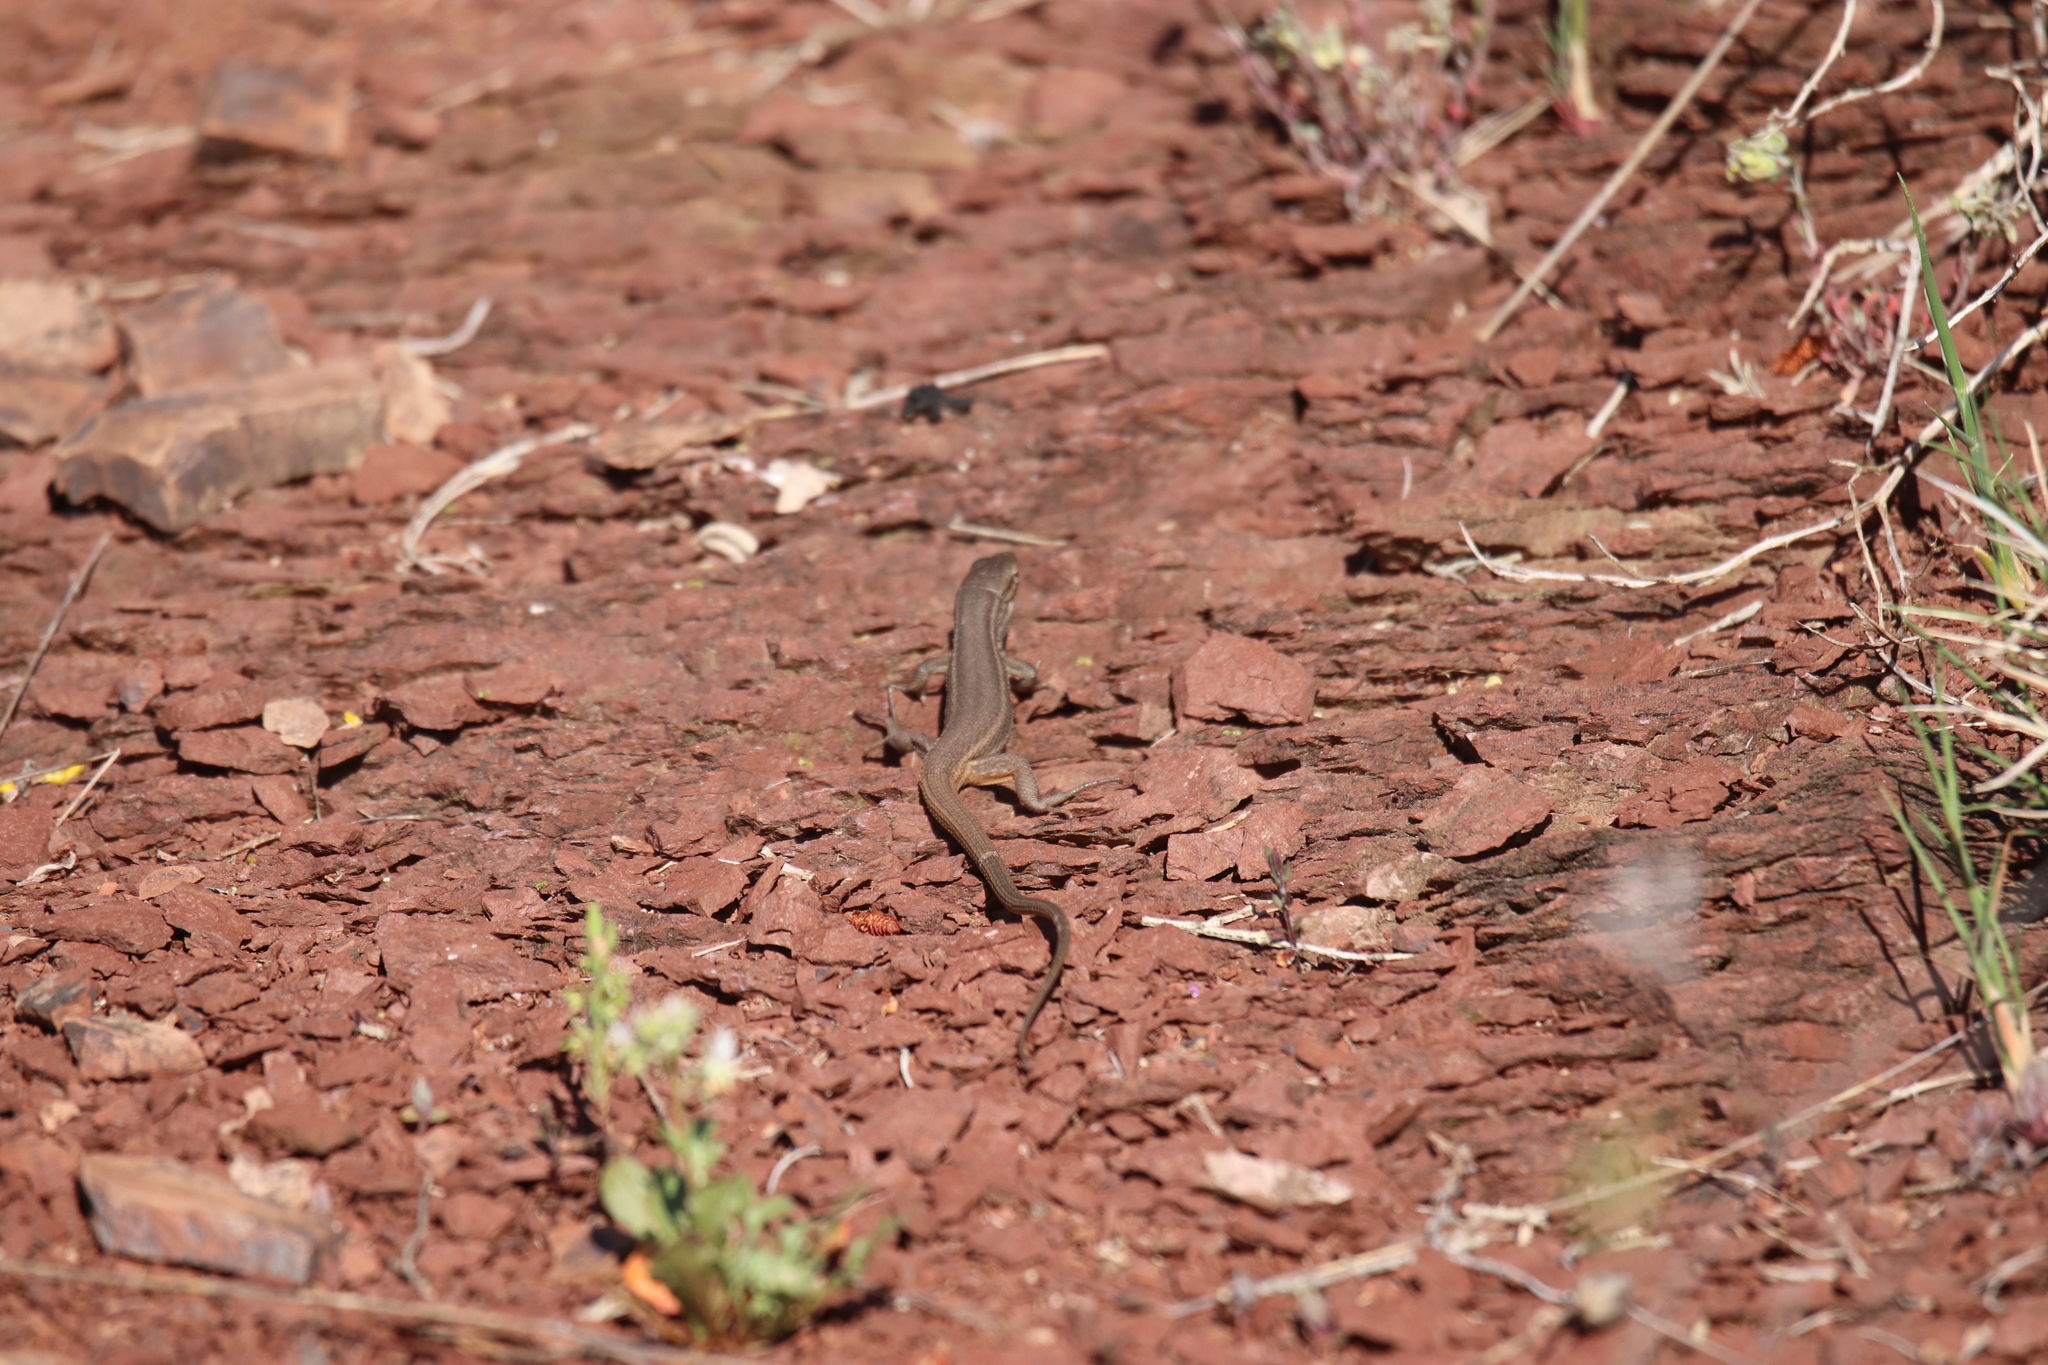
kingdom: Animalia
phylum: Chordata
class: Squamata
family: Lacertidae
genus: Psammodromus
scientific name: Psammodromus algirus
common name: Algerian psammodromus
